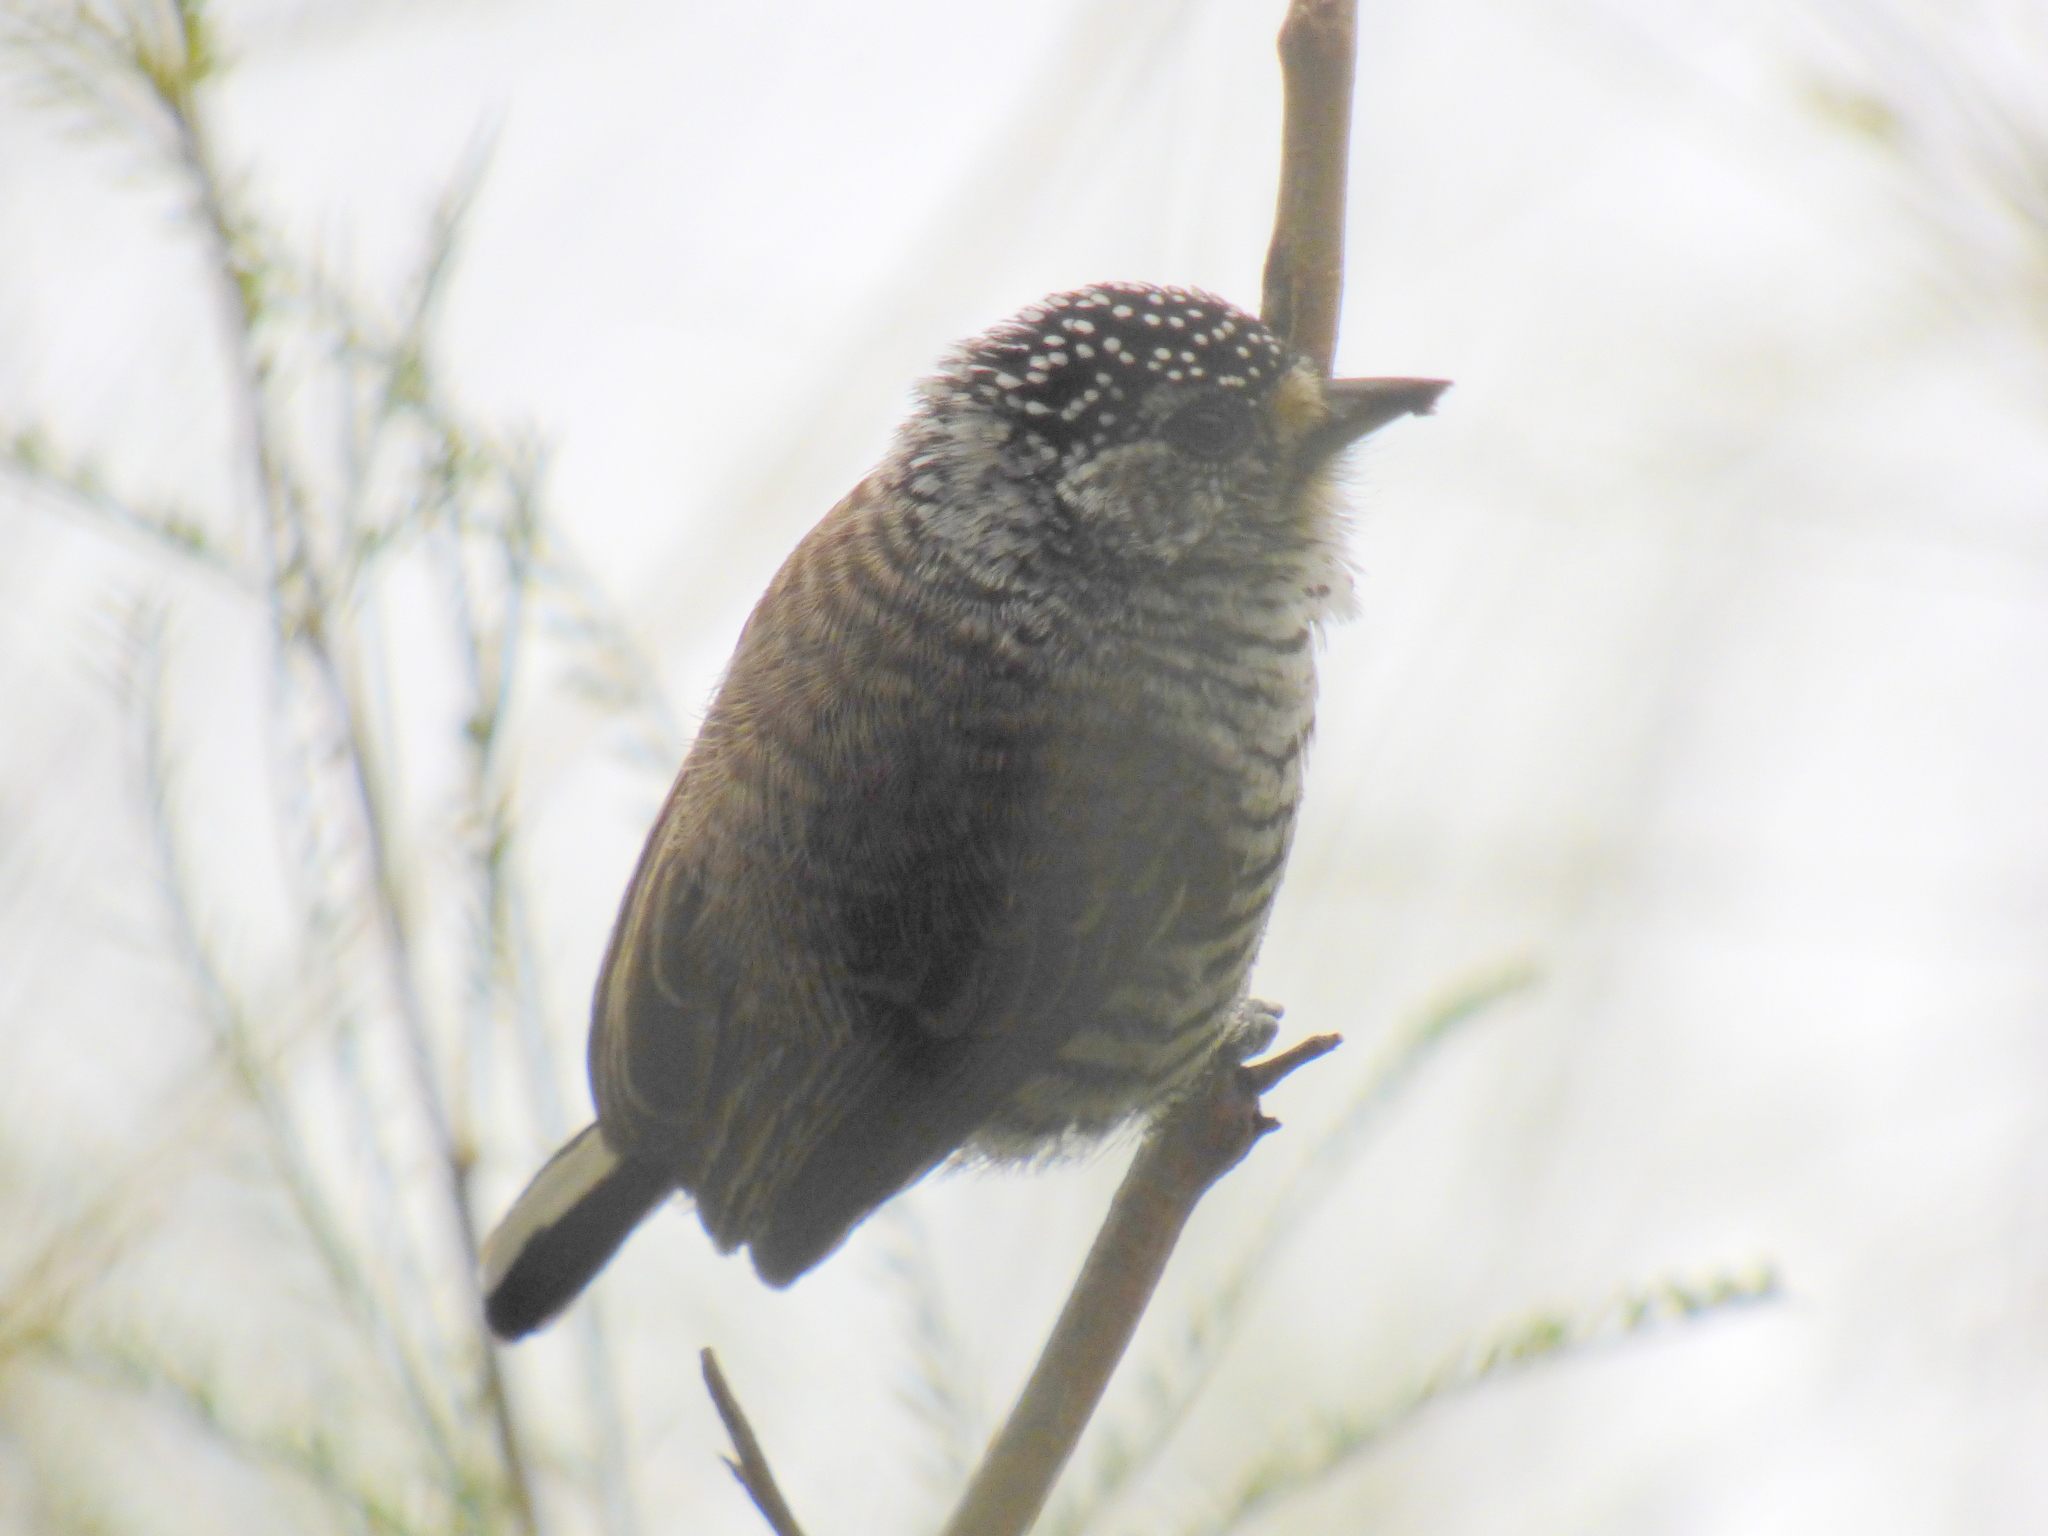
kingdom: Animalia
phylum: Chordata
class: Aves
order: Piciformes
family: Picidae
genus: Picumnus
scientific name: Picumnus cirratus
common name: White-barred piculet
